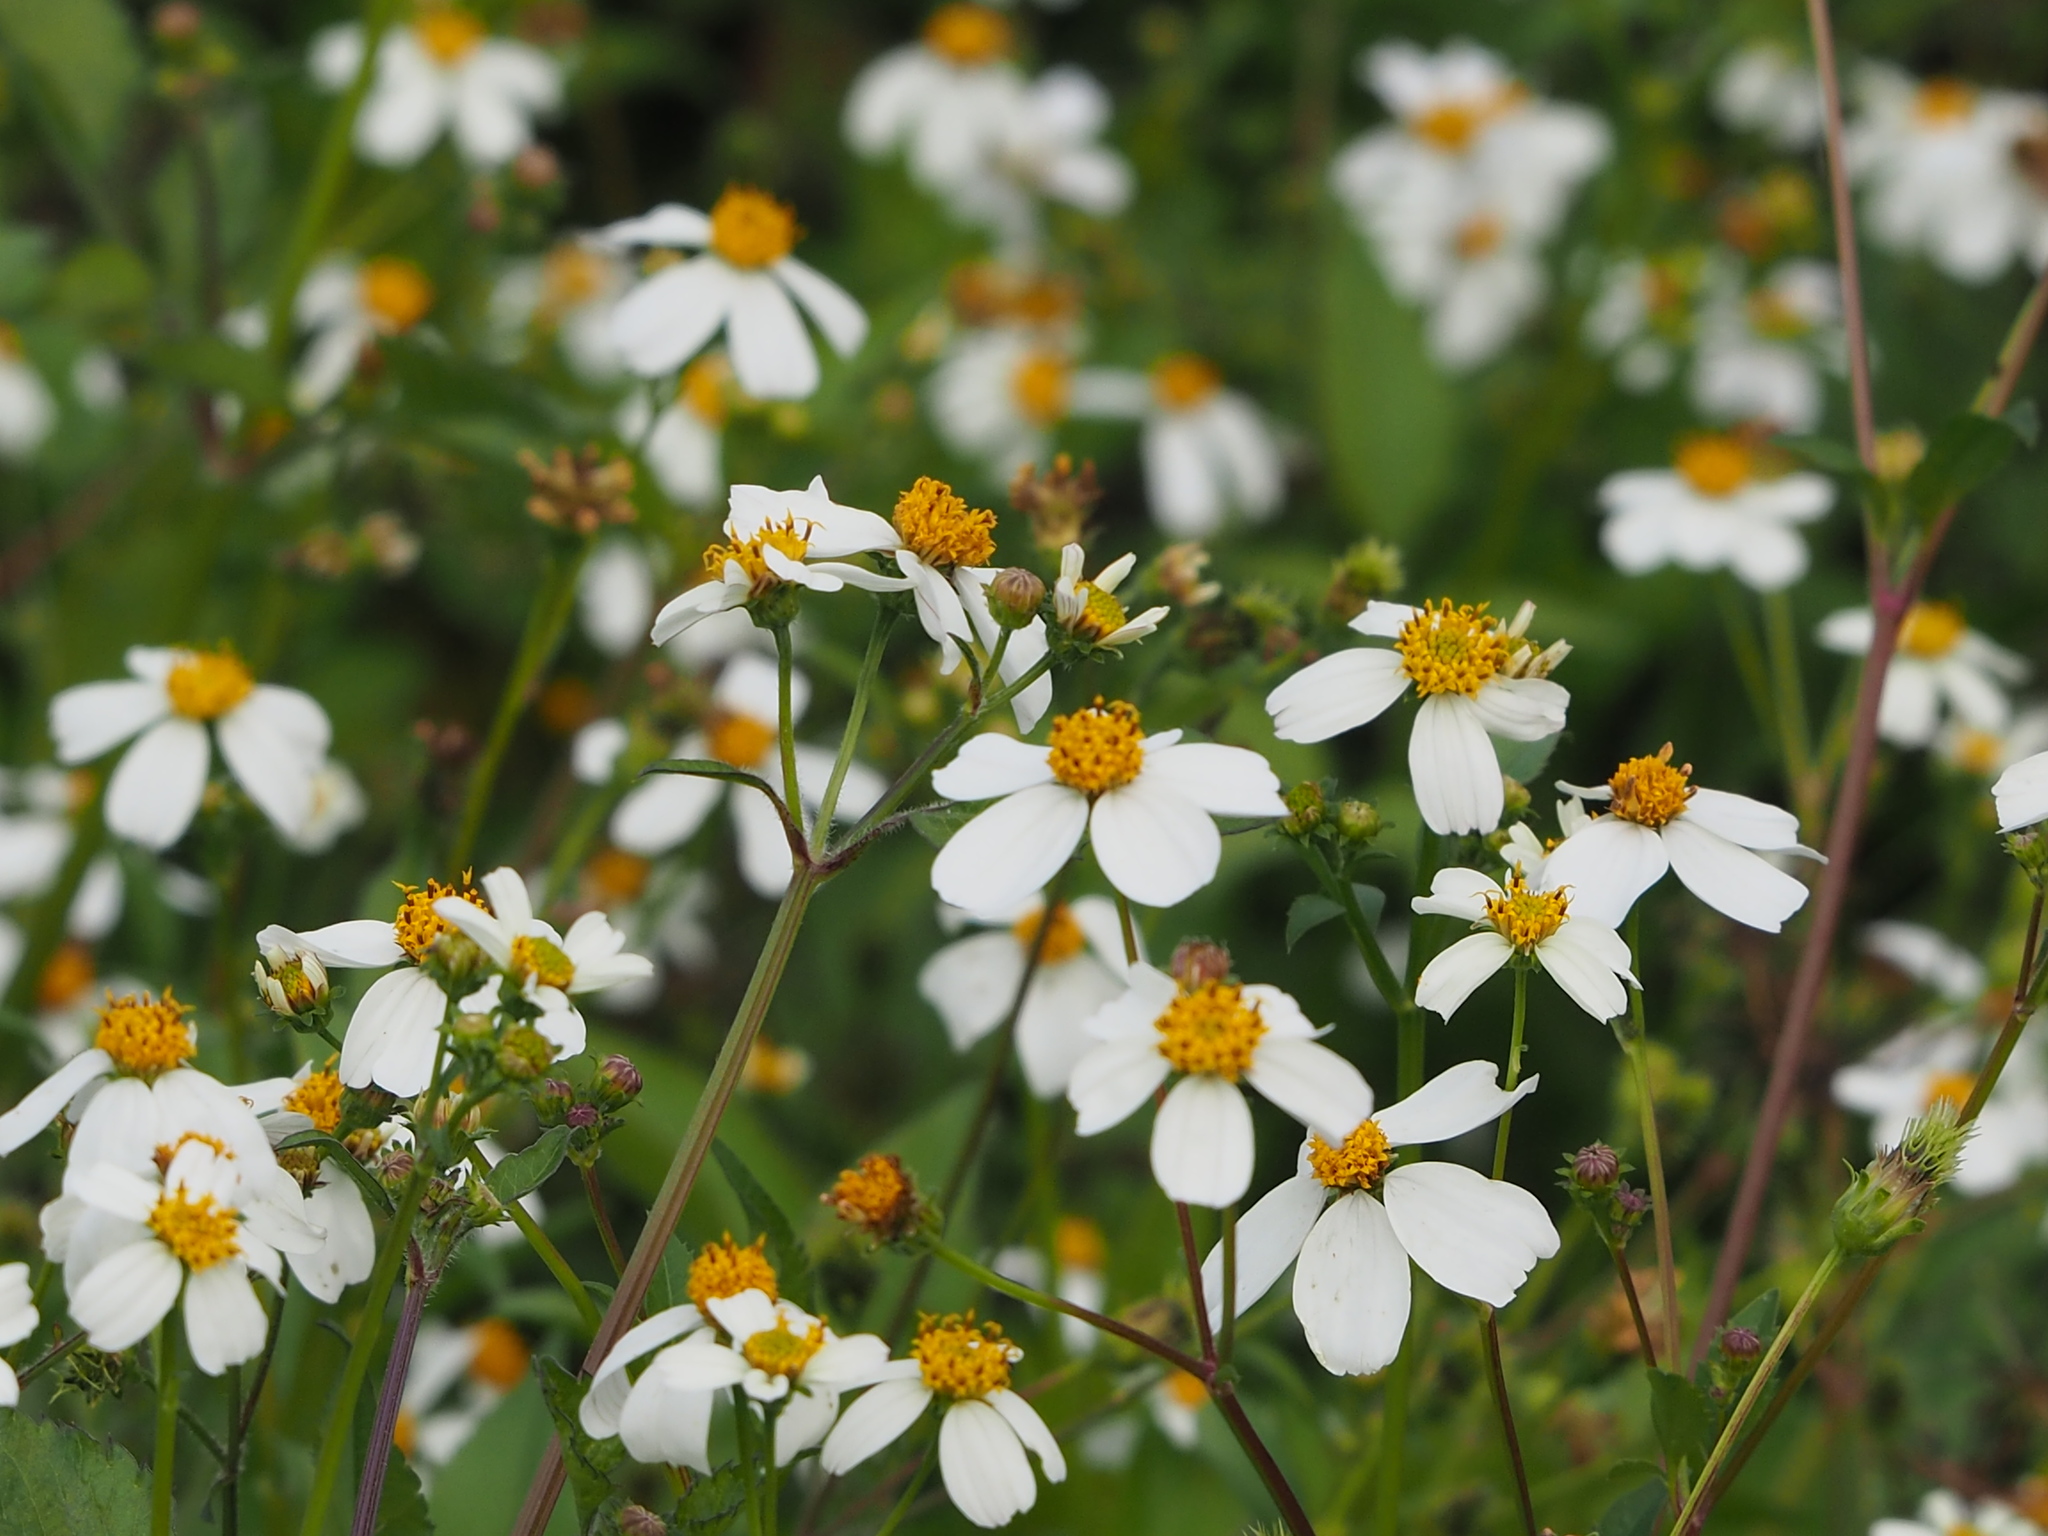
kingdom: Plantae
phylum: Tracheophyta
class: Magnoliopsida
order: Asterales
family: Asteraceae
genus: Bidens
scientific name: Bidens alba
